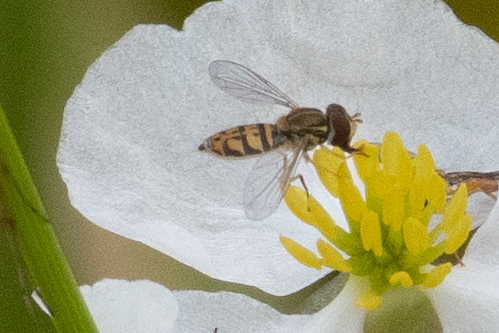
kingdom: Animalia
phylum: Arthropoda
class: Insecta
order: Diptera
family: Syrphidae
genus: Toxomerus
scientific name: Toxomerus marginatus
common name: Syrphid fly
